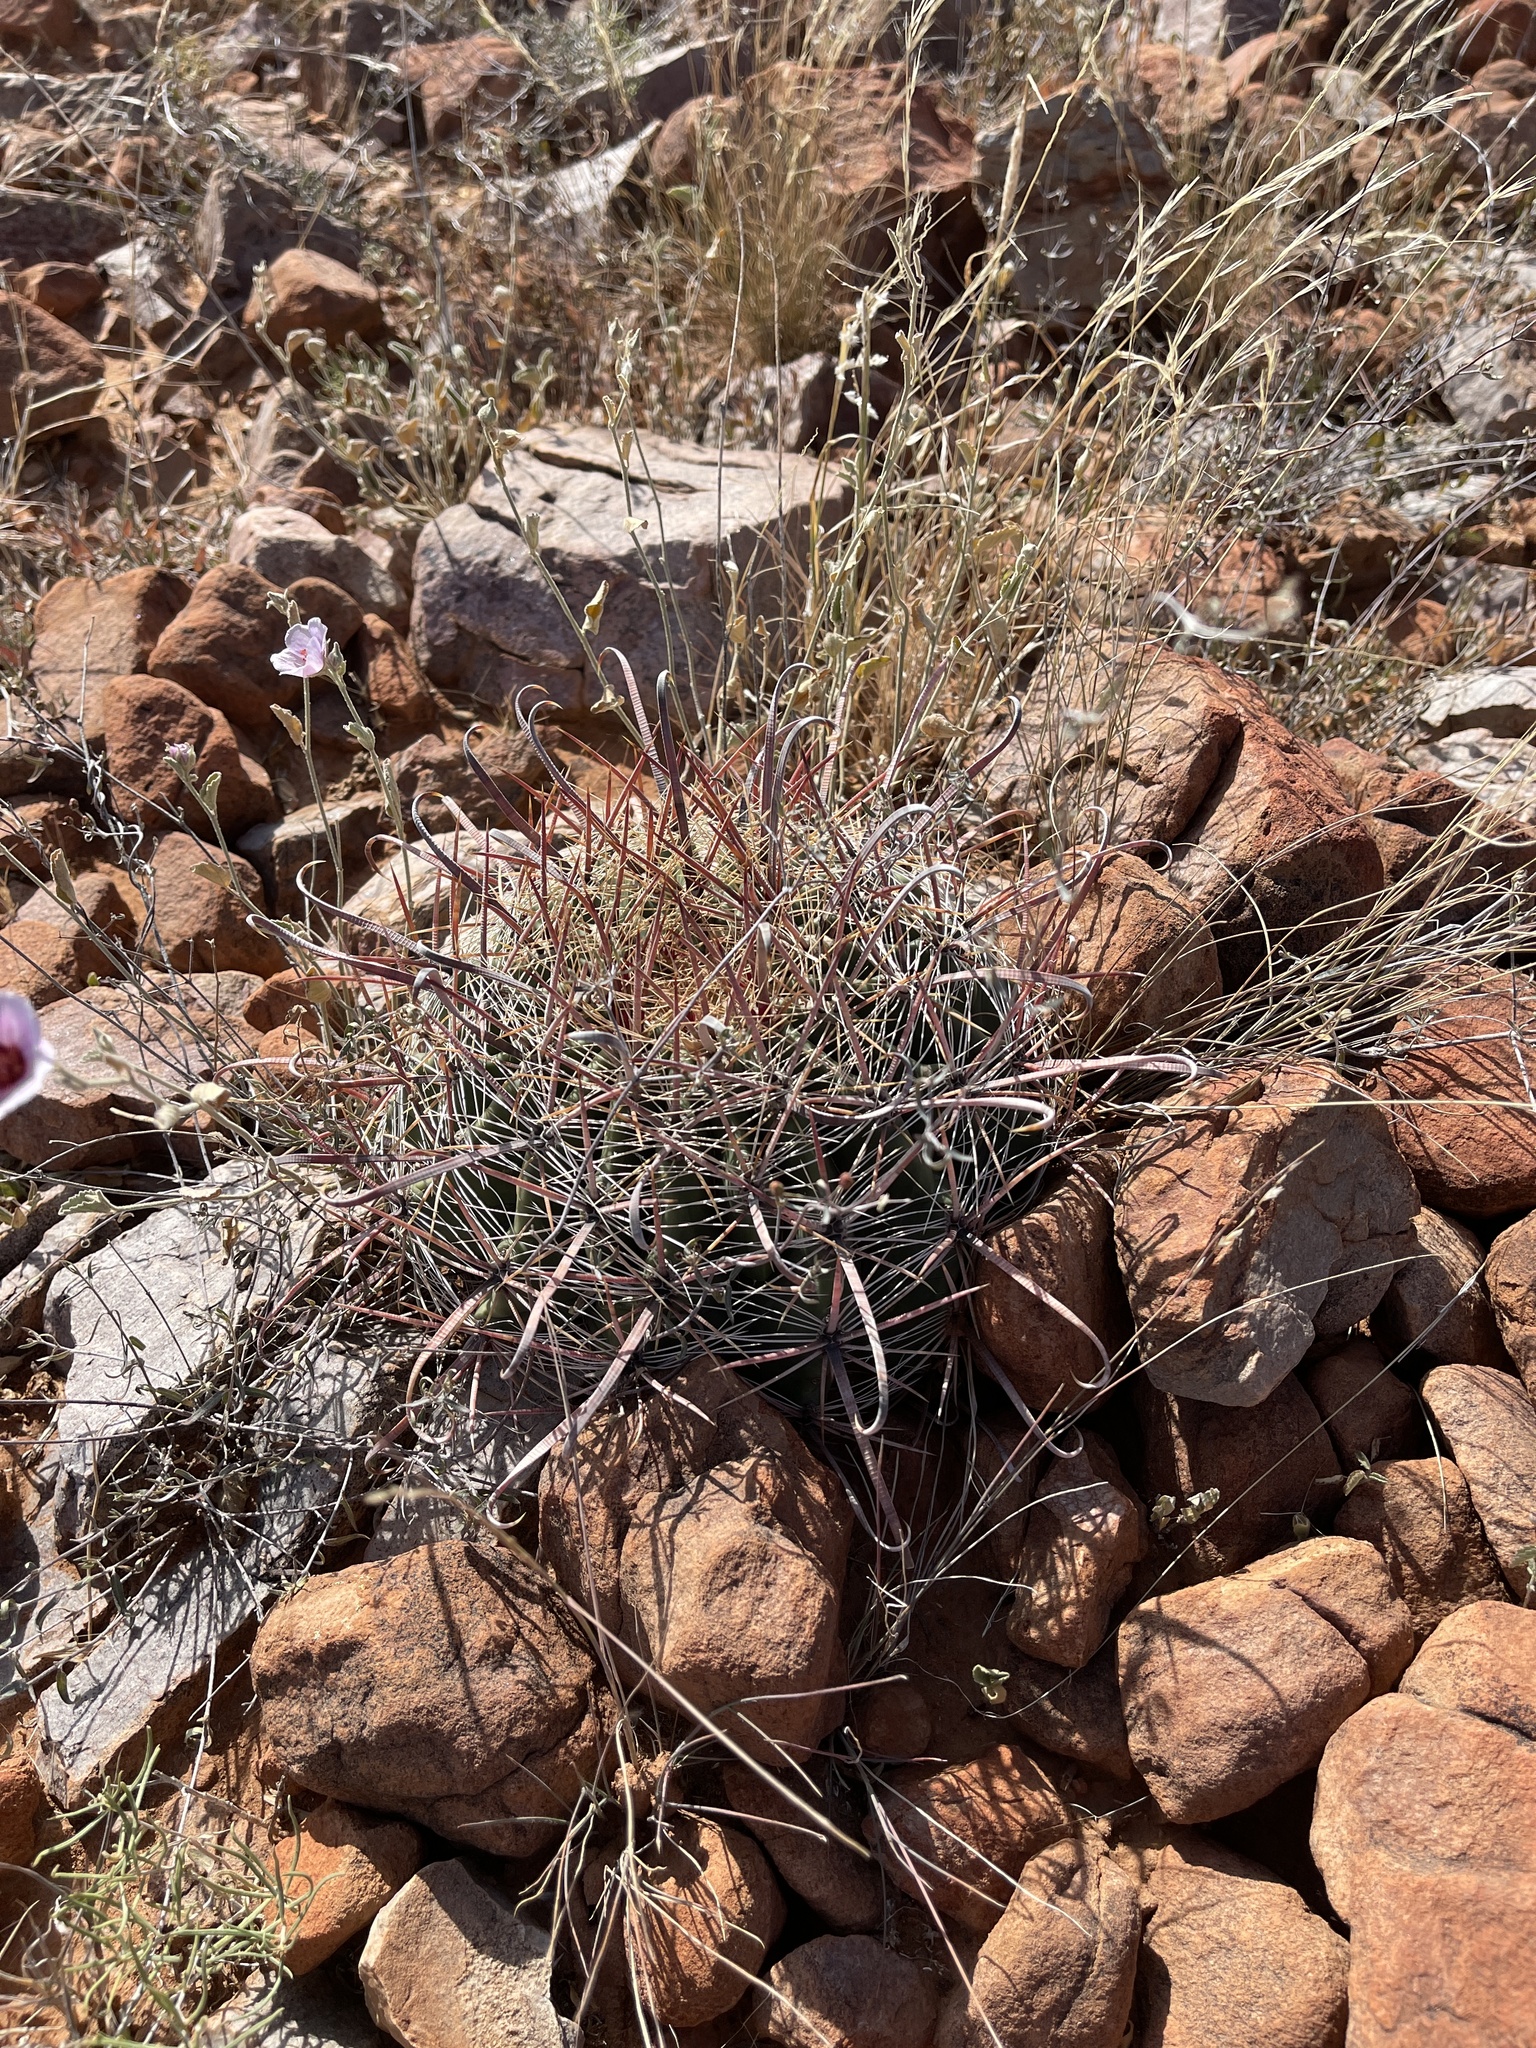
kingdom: Plantae
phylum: Tracheophyta
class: Magnoliopsida
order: Caryophyllales
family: Cactaceae
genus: Ferocactus
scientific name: Ferocactus wislizeni
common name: Candy barrel cactus
